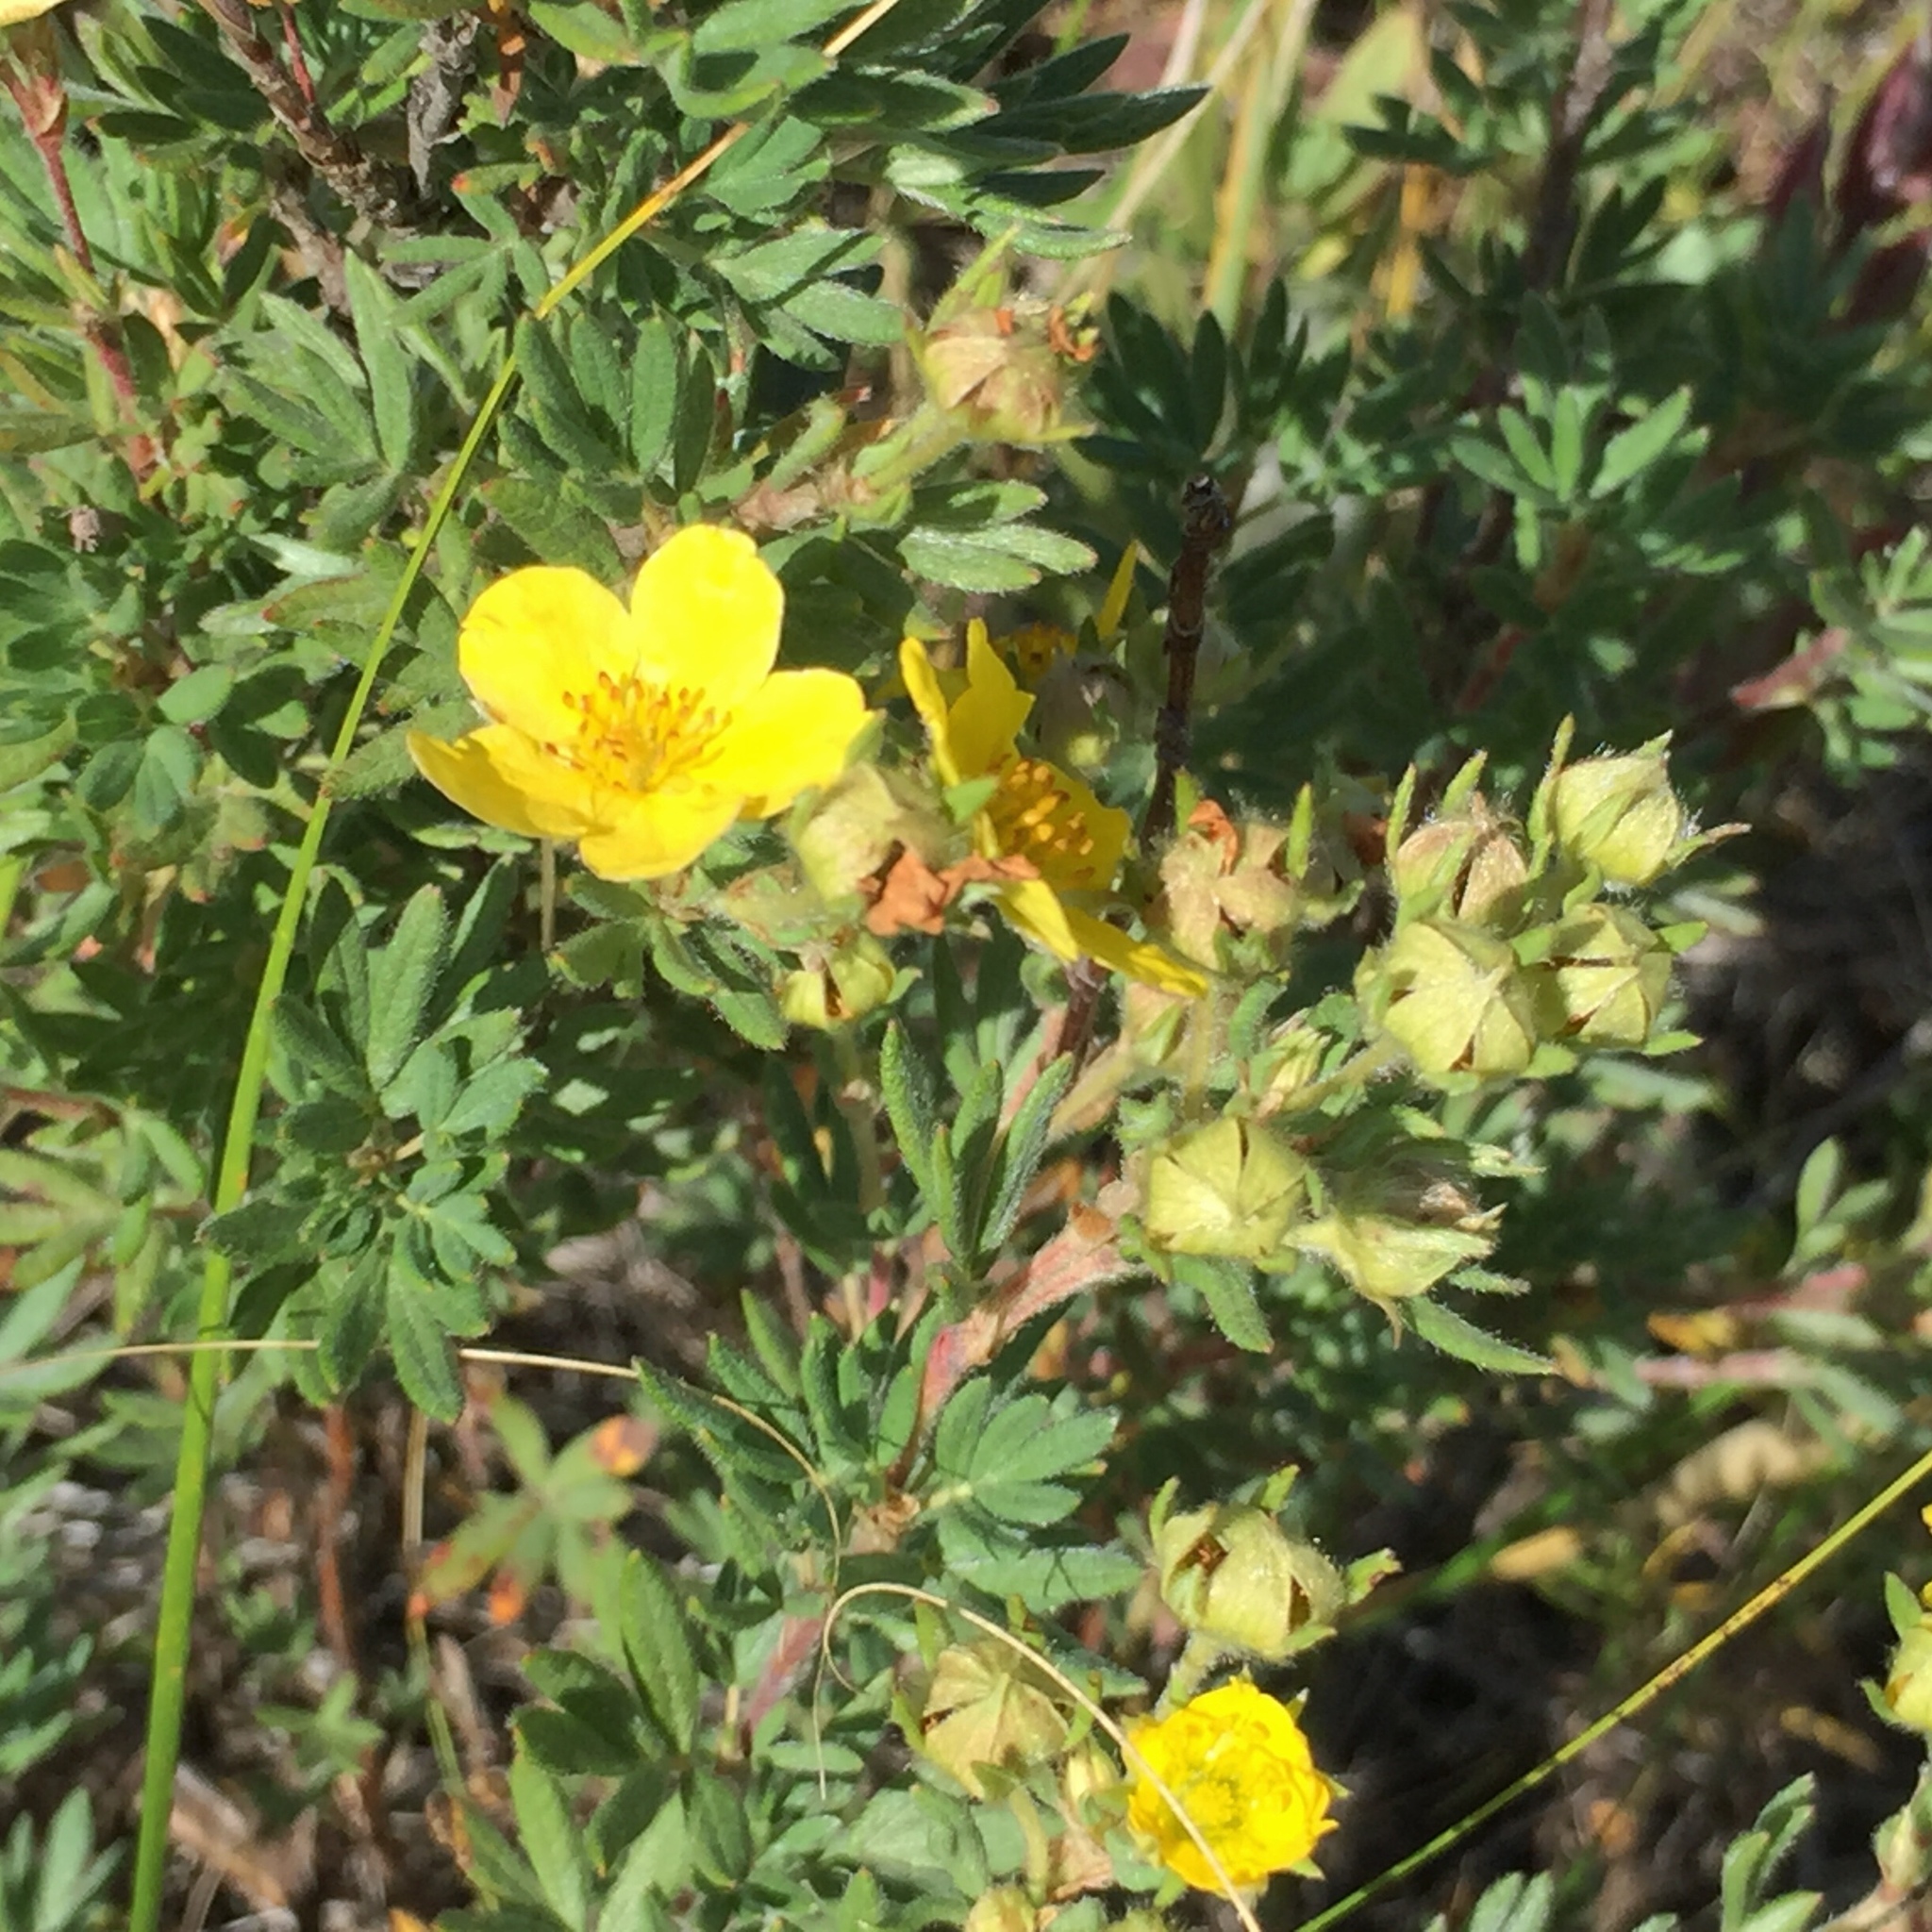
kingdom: Plantae
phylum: Tracheophyta
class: Magnoliopsida
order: Rosales
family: Rosaceae
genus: Dasiphora
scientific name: Dasiphora fruticosa
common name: Shrubby cinquefoil
